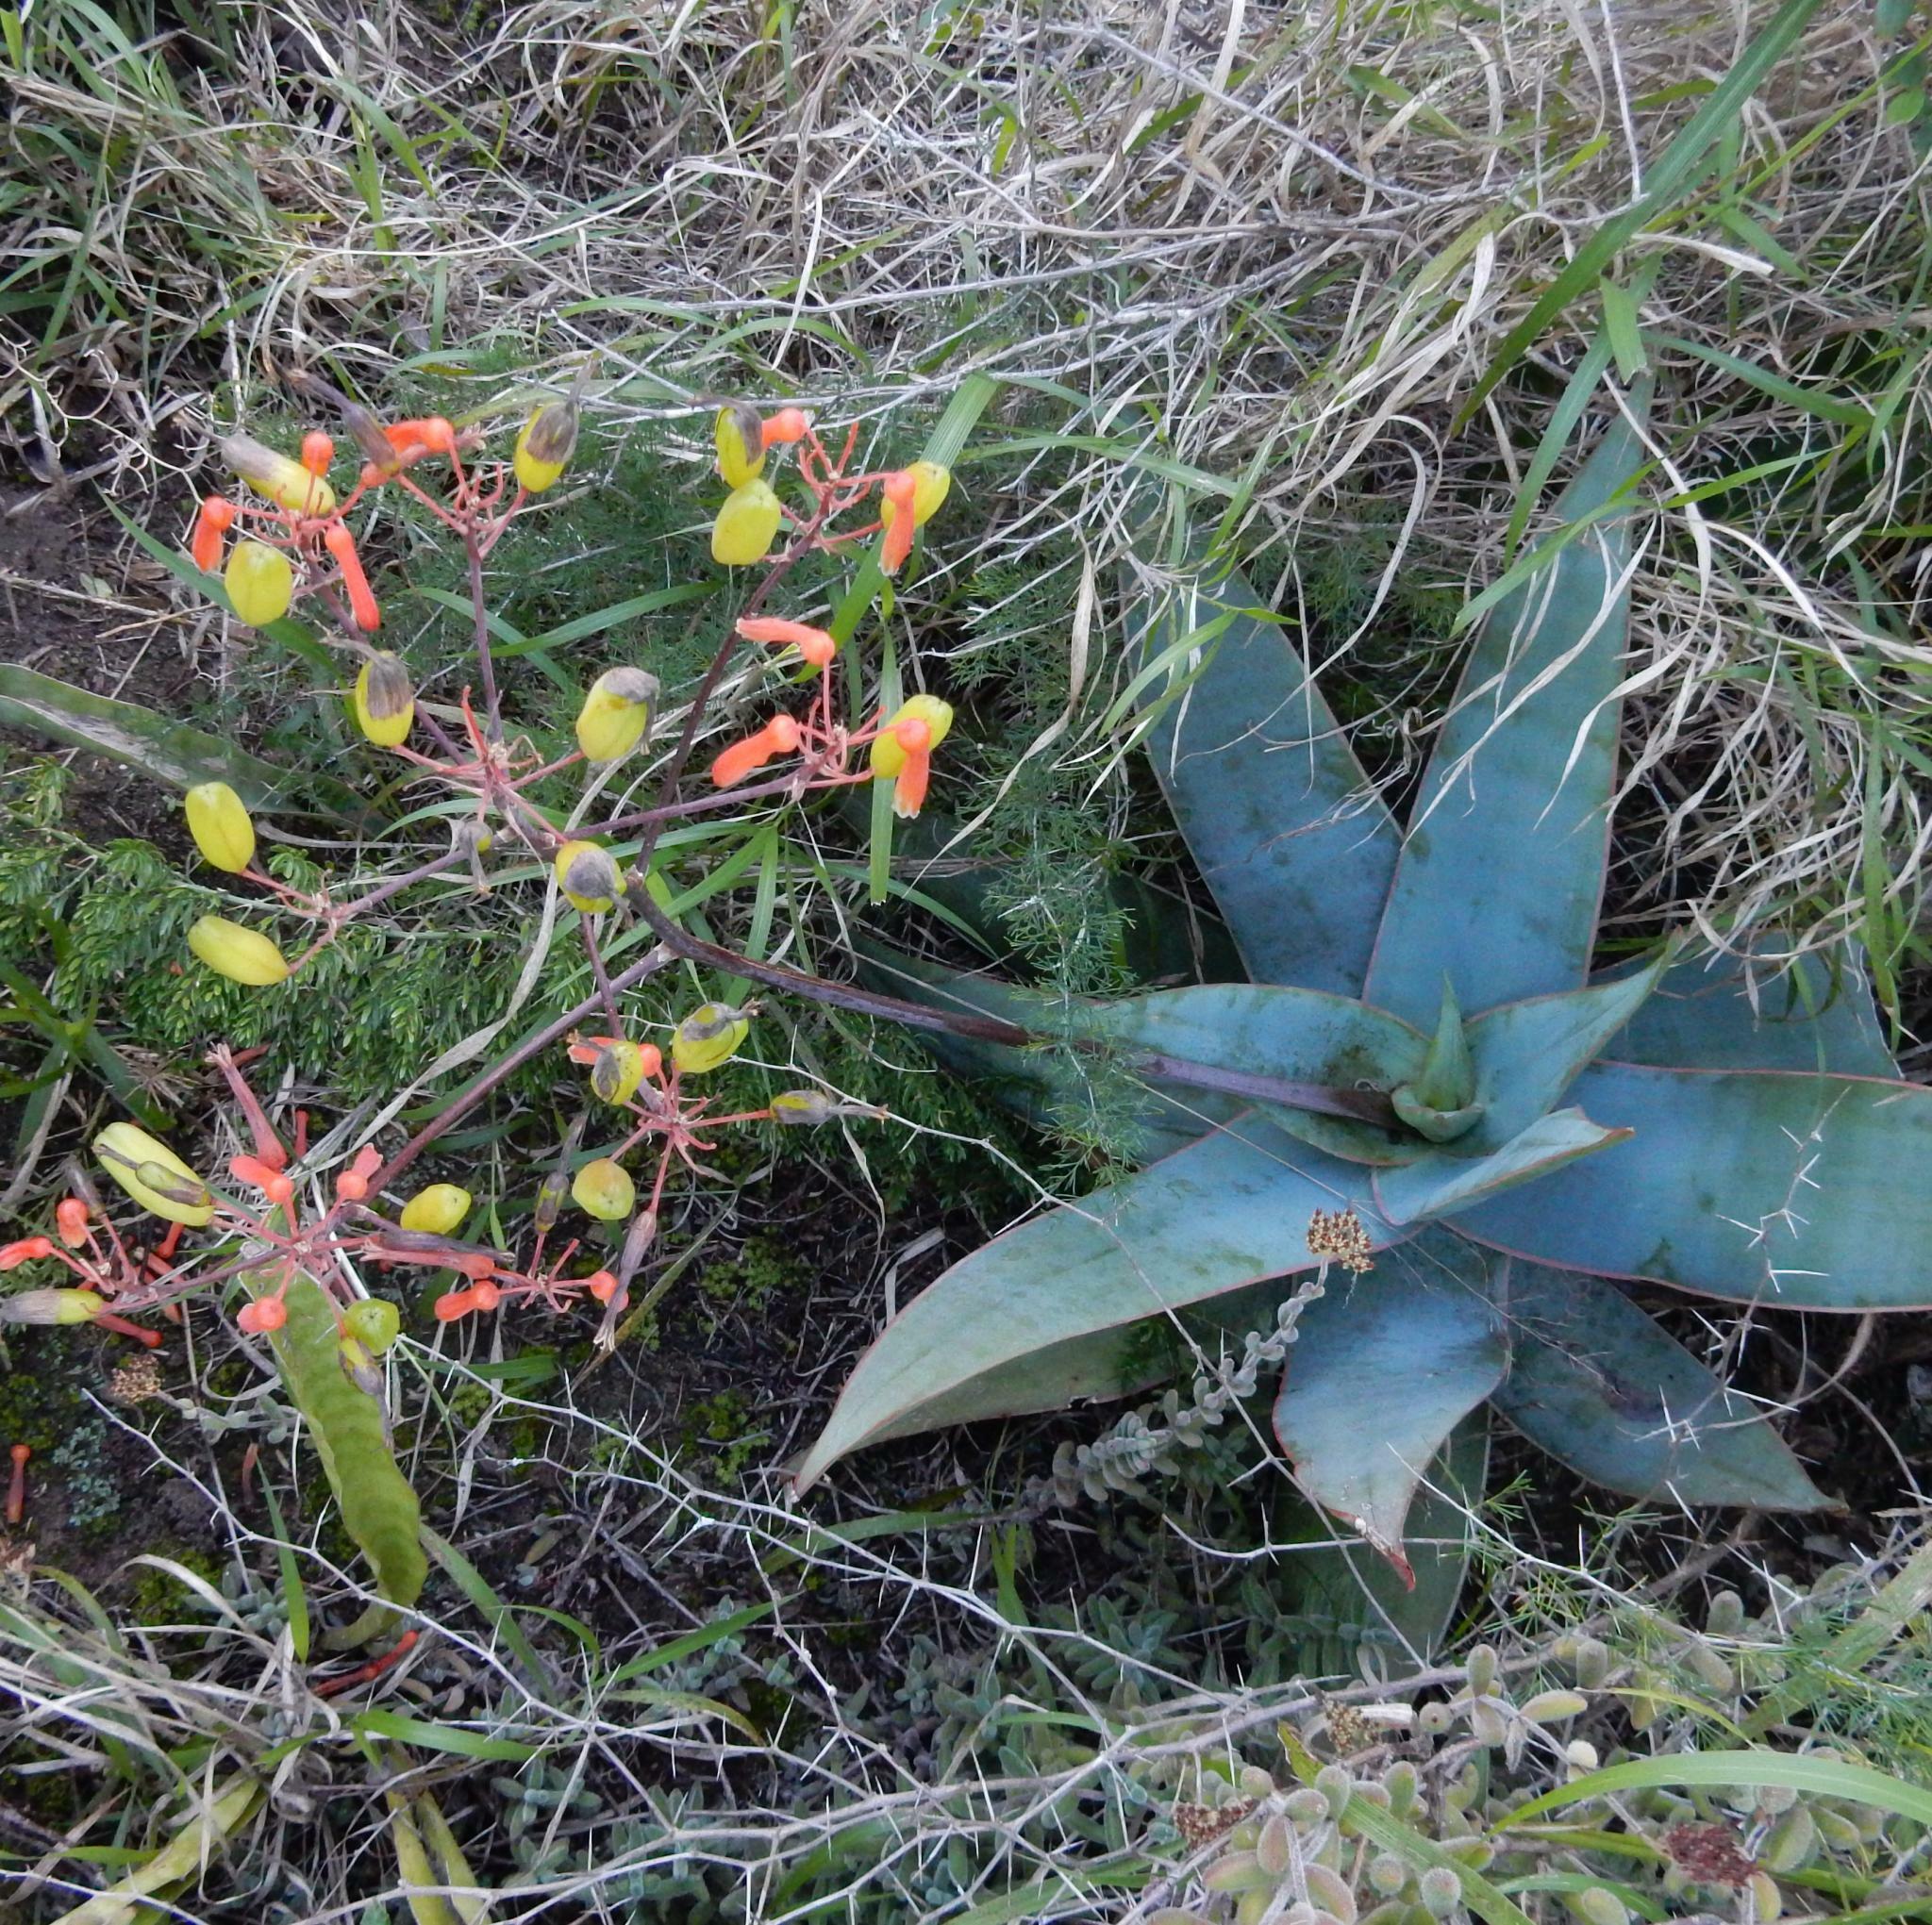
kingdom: Plantae
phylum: Tracheophyta
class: Liliopsida
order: Asparagales
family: Asphodelaceae
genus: Aloe
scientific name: Aloe striata
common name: Coral aloe
